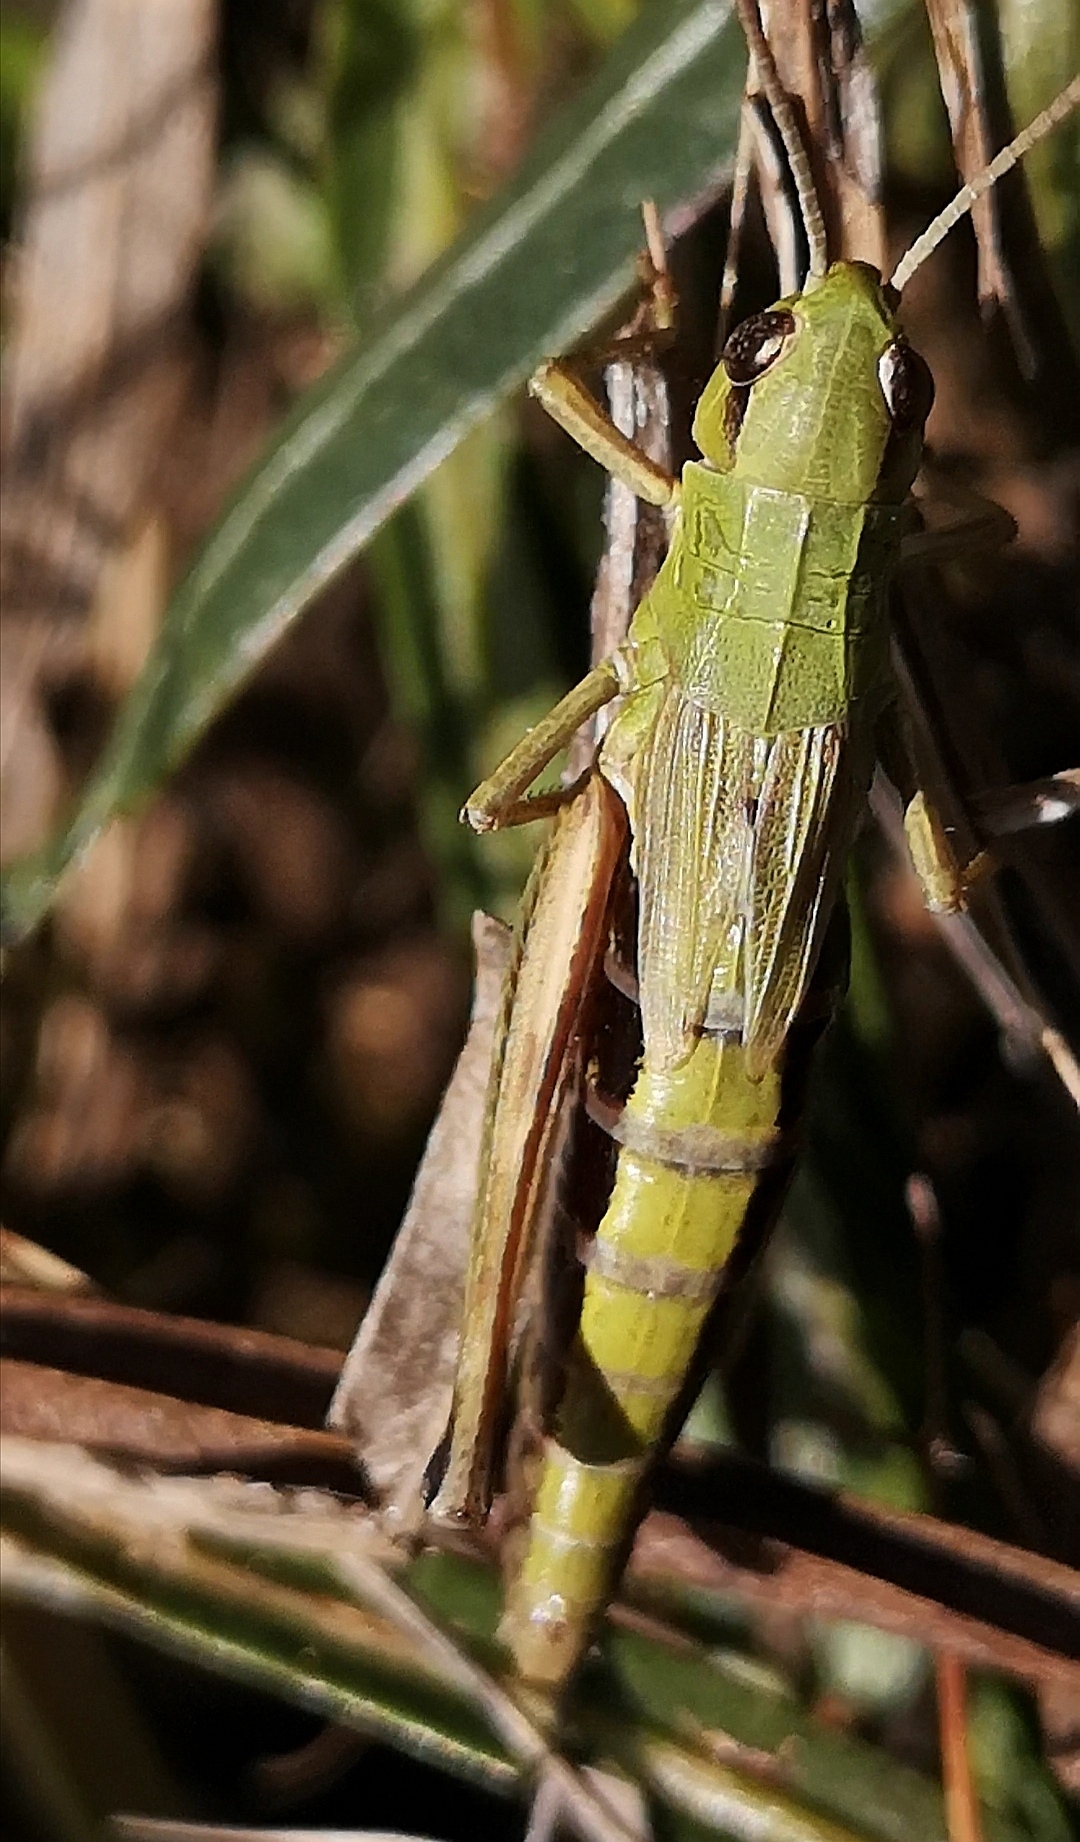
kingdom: Animalia
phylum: Arthropoda
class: Insecta
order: Orthoptera
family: Acrididae
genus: Pseudochorthippus
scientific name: Pseudochorthippus parallelus
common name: Meadow grasshopper
